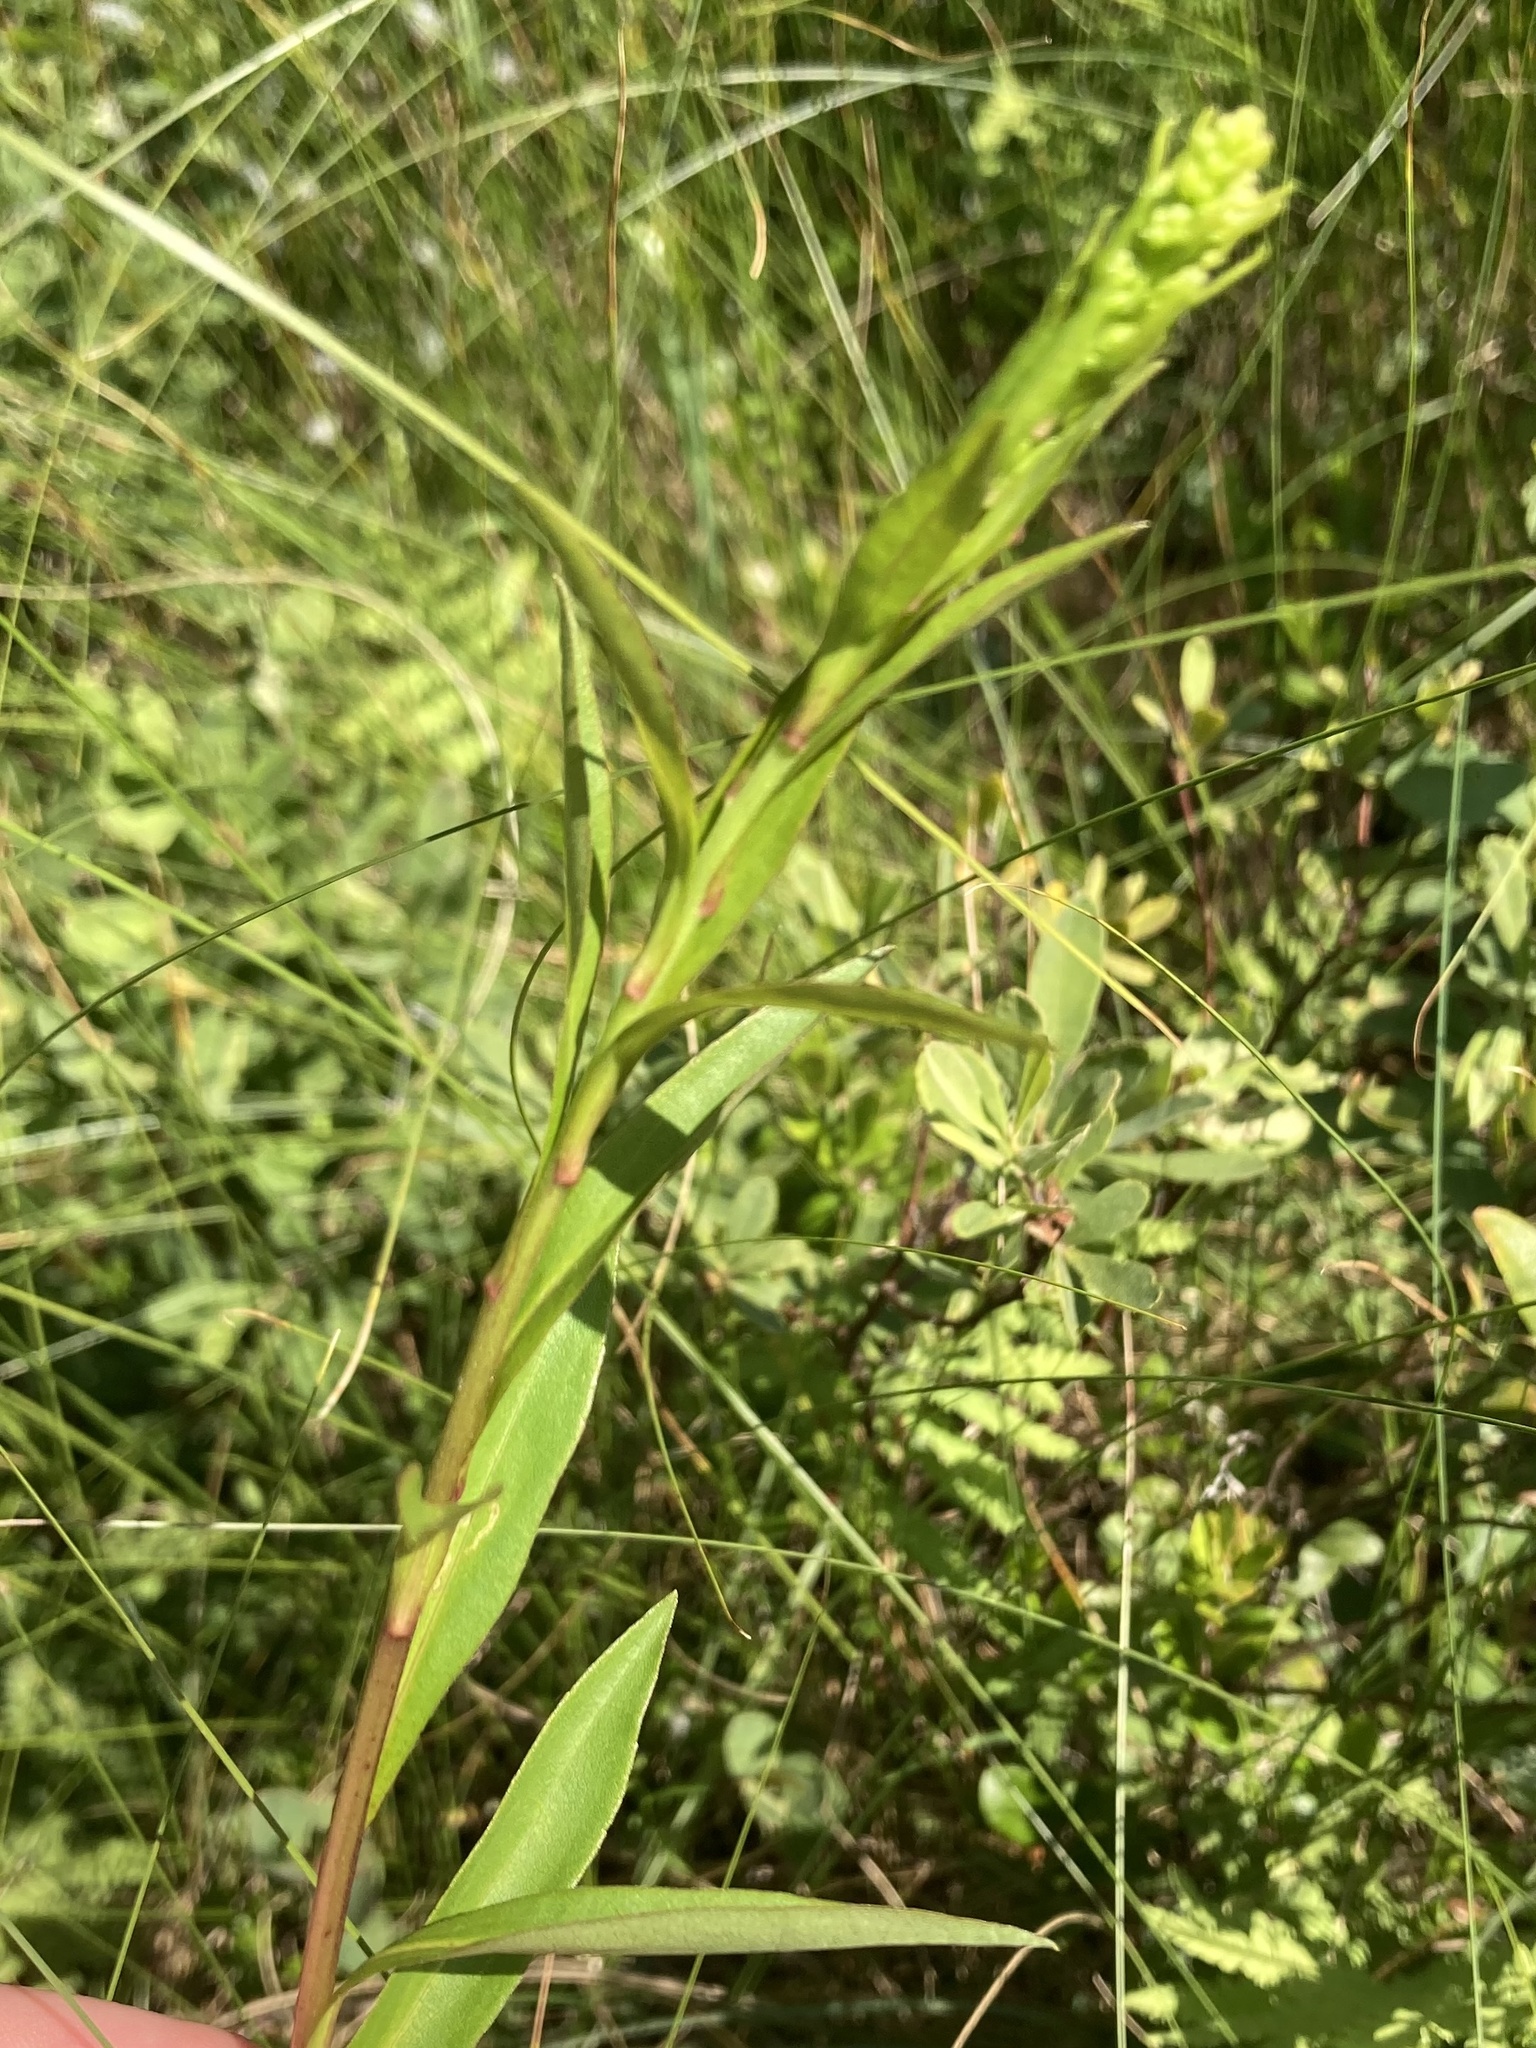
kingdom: Plantae
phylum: Tracheophyta
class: Magnoliopsida
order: Asterales
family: Asteraceae
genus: Solidago
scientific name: Solidago uliginosa
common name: Bog goldenrod
